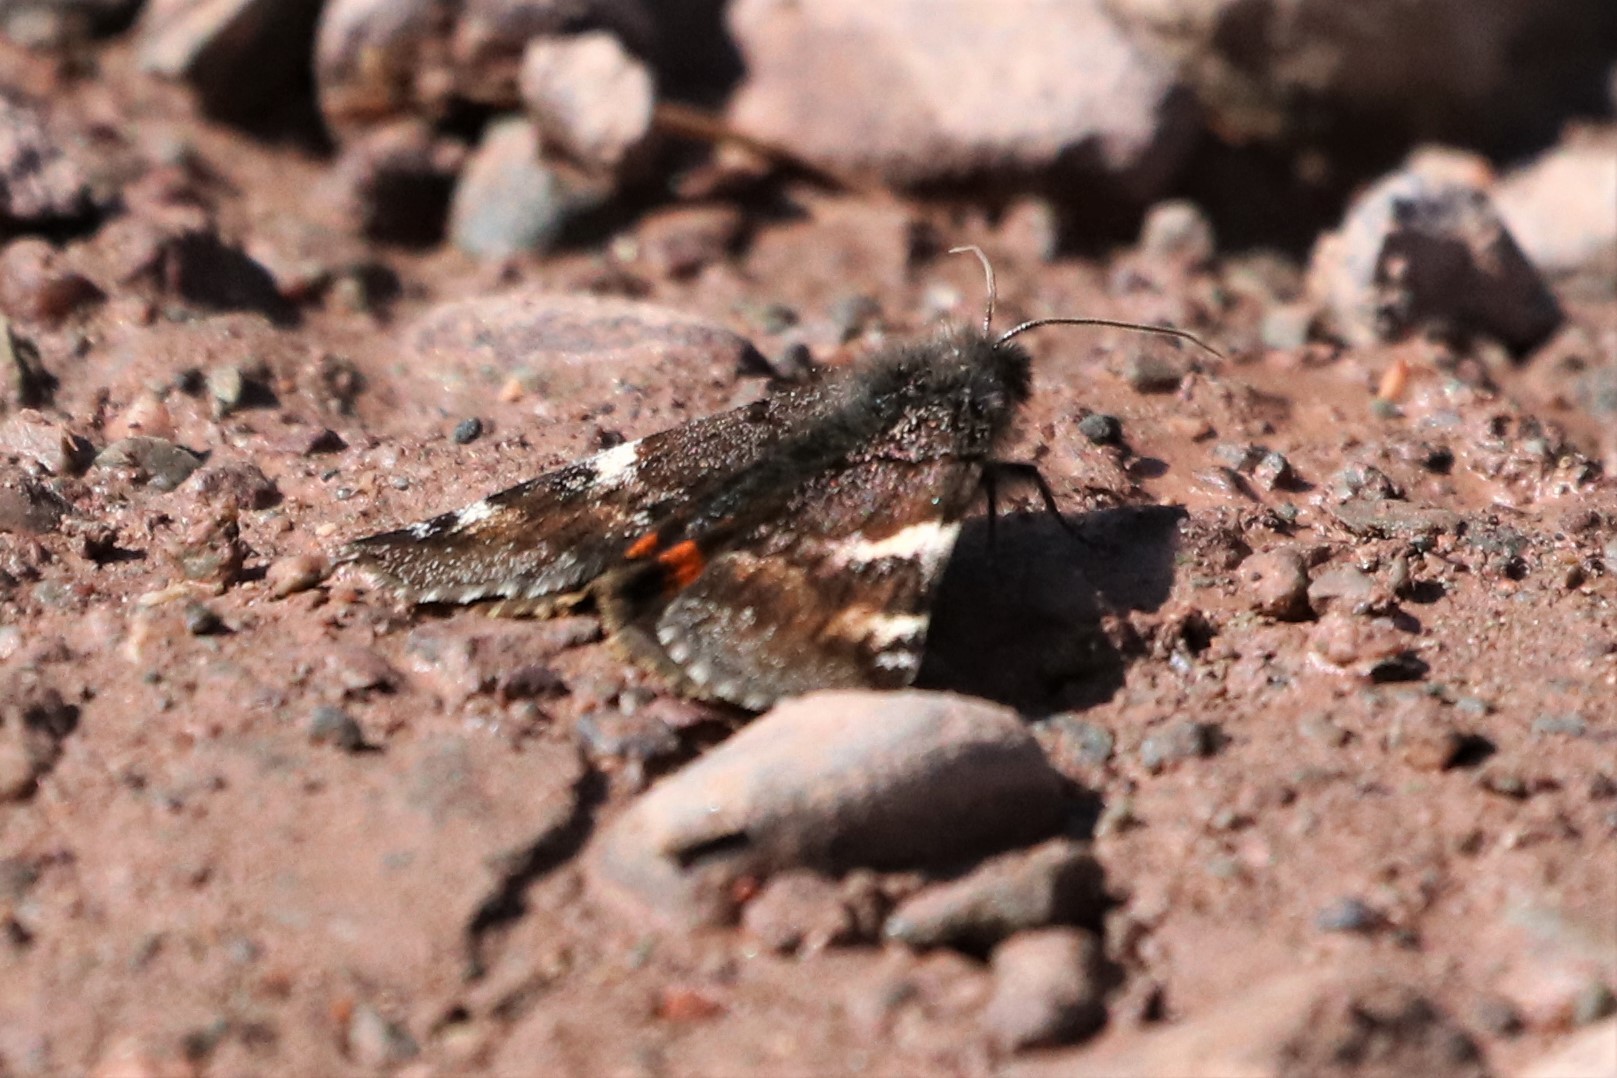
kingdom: Animalia
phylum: Arthropoda
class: Insecta
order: Lepidoptera
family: Geometridae
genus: Archiearis
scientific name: Archiearis infans
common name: First born geometer
